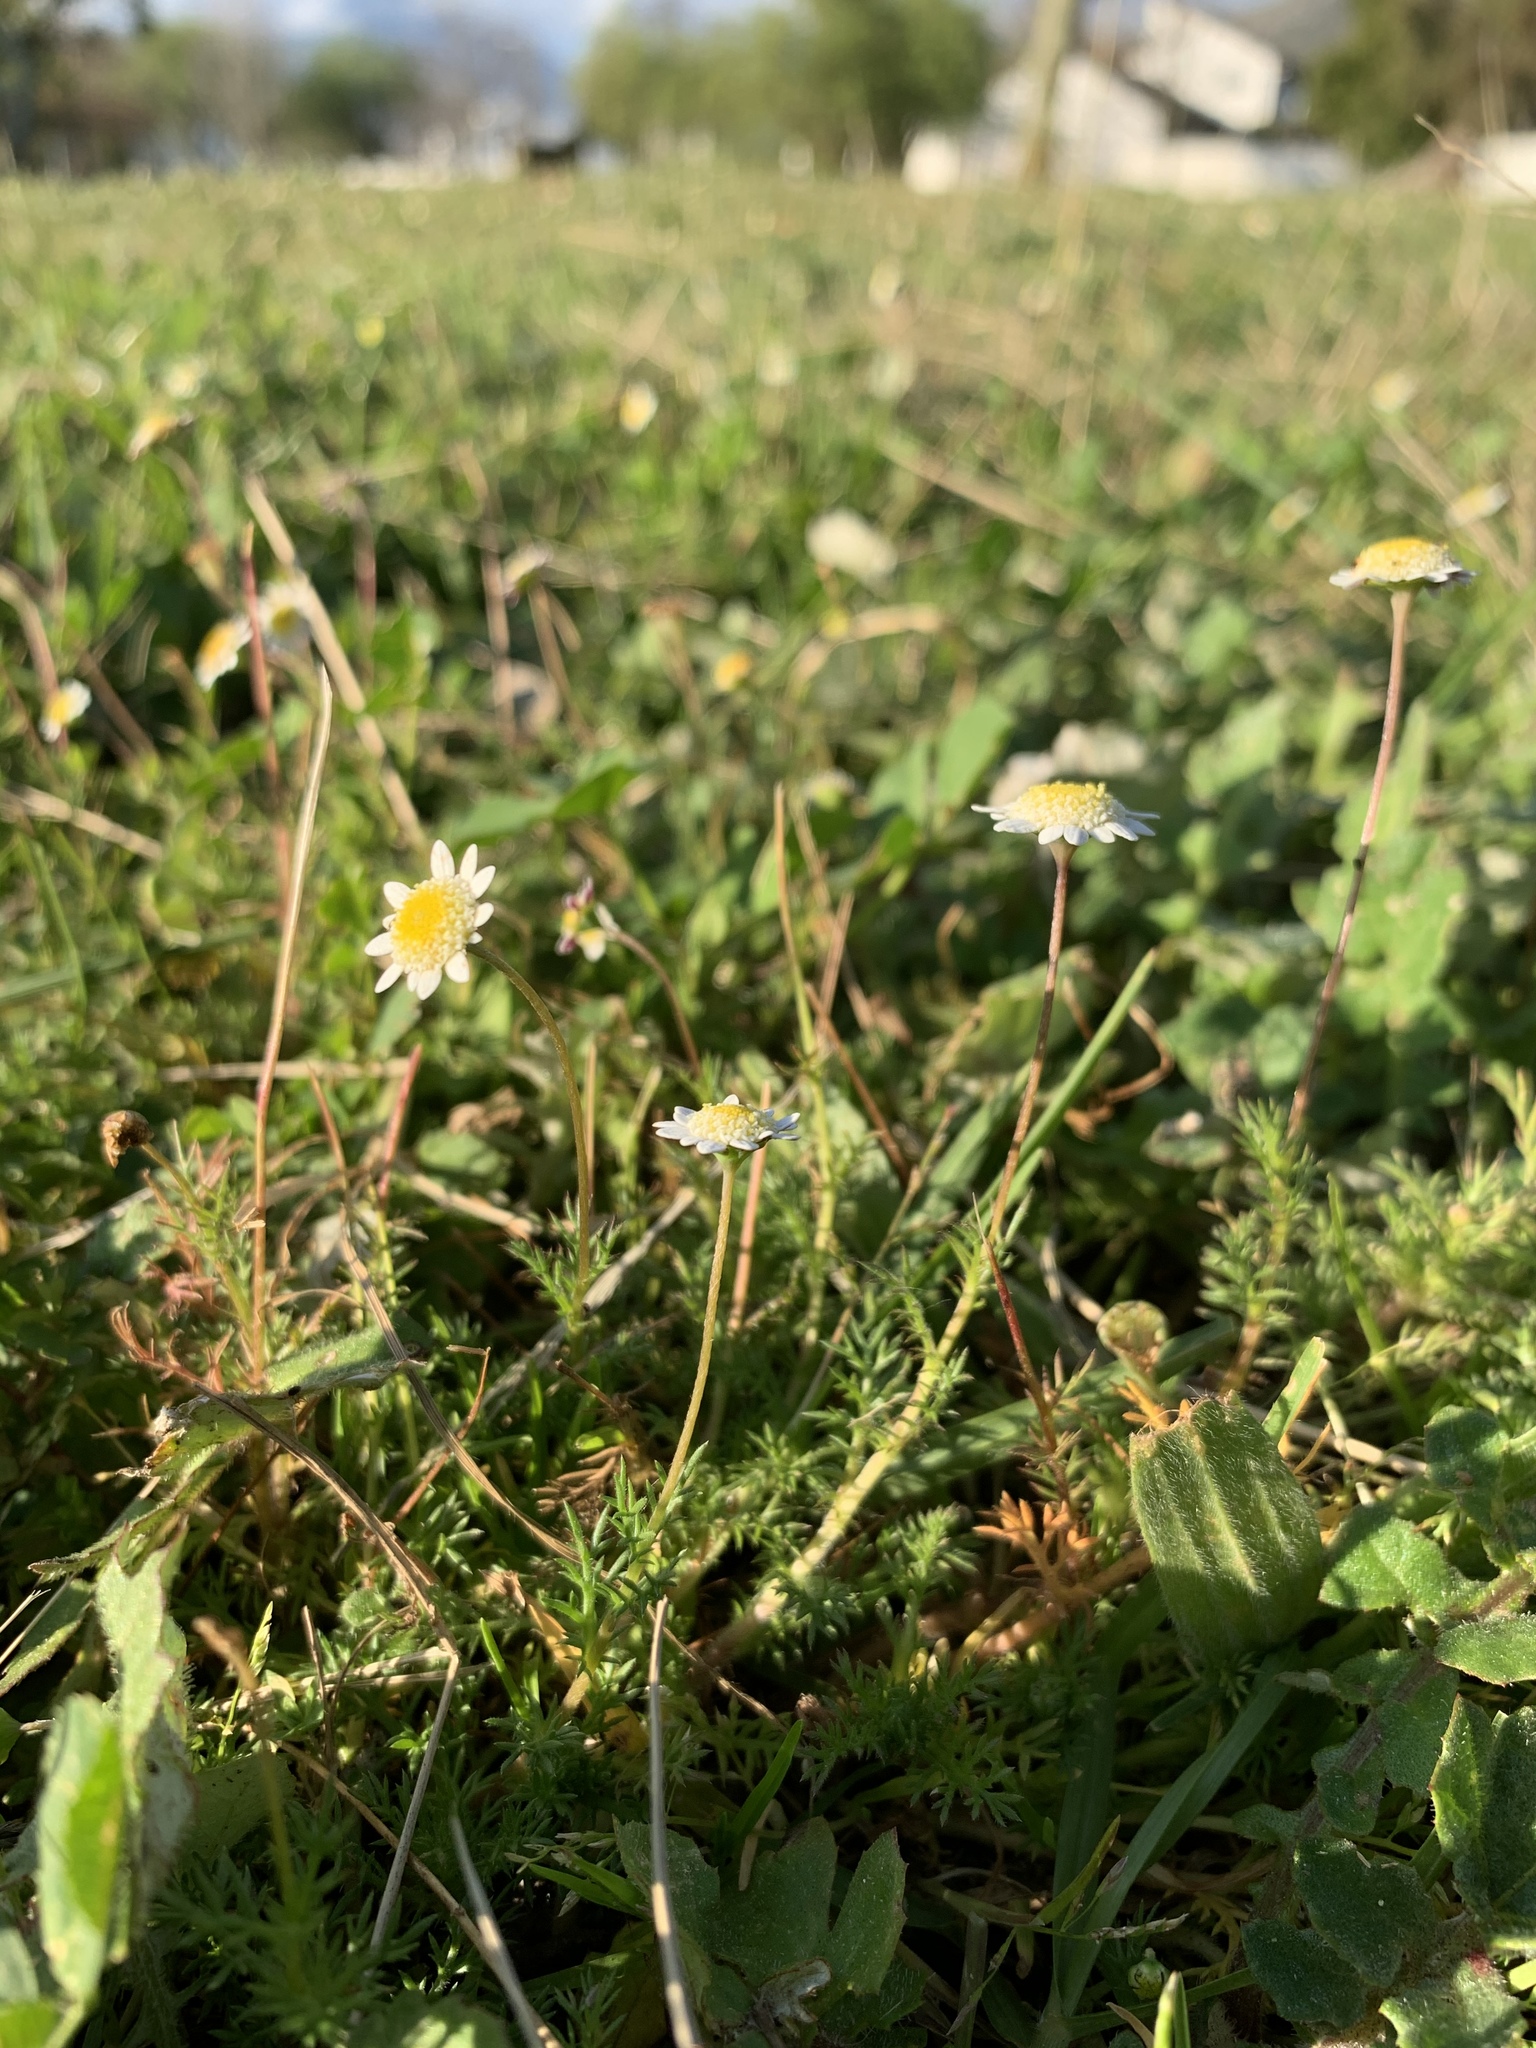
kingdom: Plantae
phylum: Tracheophyta
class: Magnoliopsida
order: Asterales
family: Asteraceae
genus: Cotula
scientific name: Cotula turbinata
